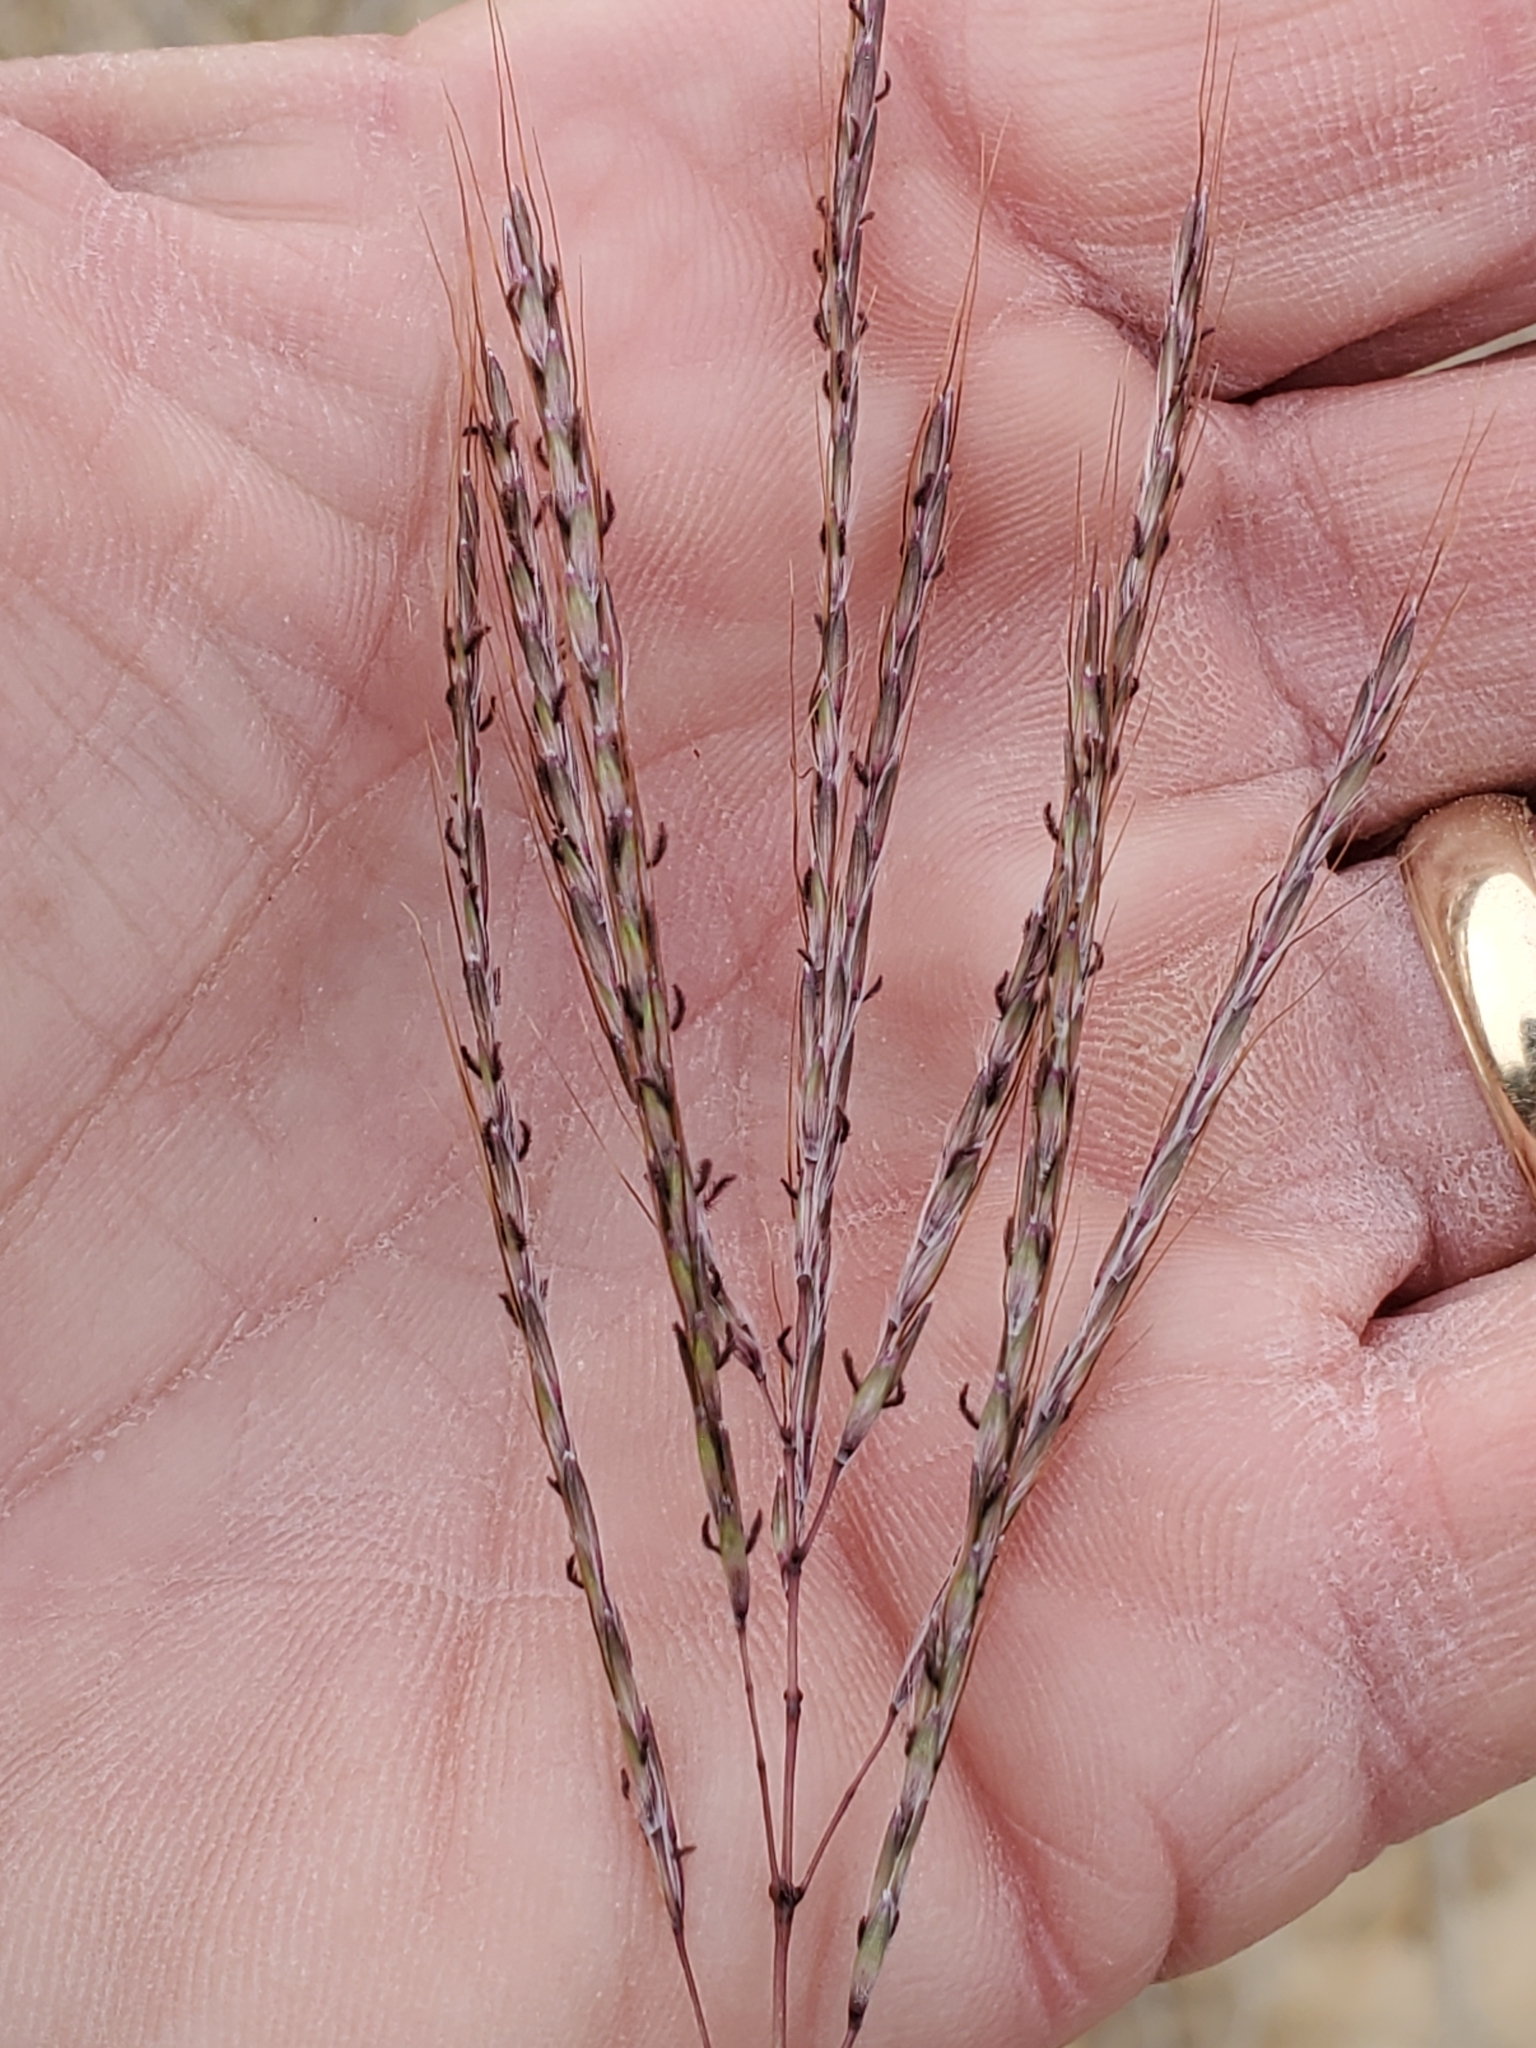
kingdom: Plantae
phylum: Tracheophyta
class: Liliopsida
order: Poales
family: Poaceae
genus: Bothriochloa
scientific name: Bothriochloa ischaemum
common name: Yellow bluestem
